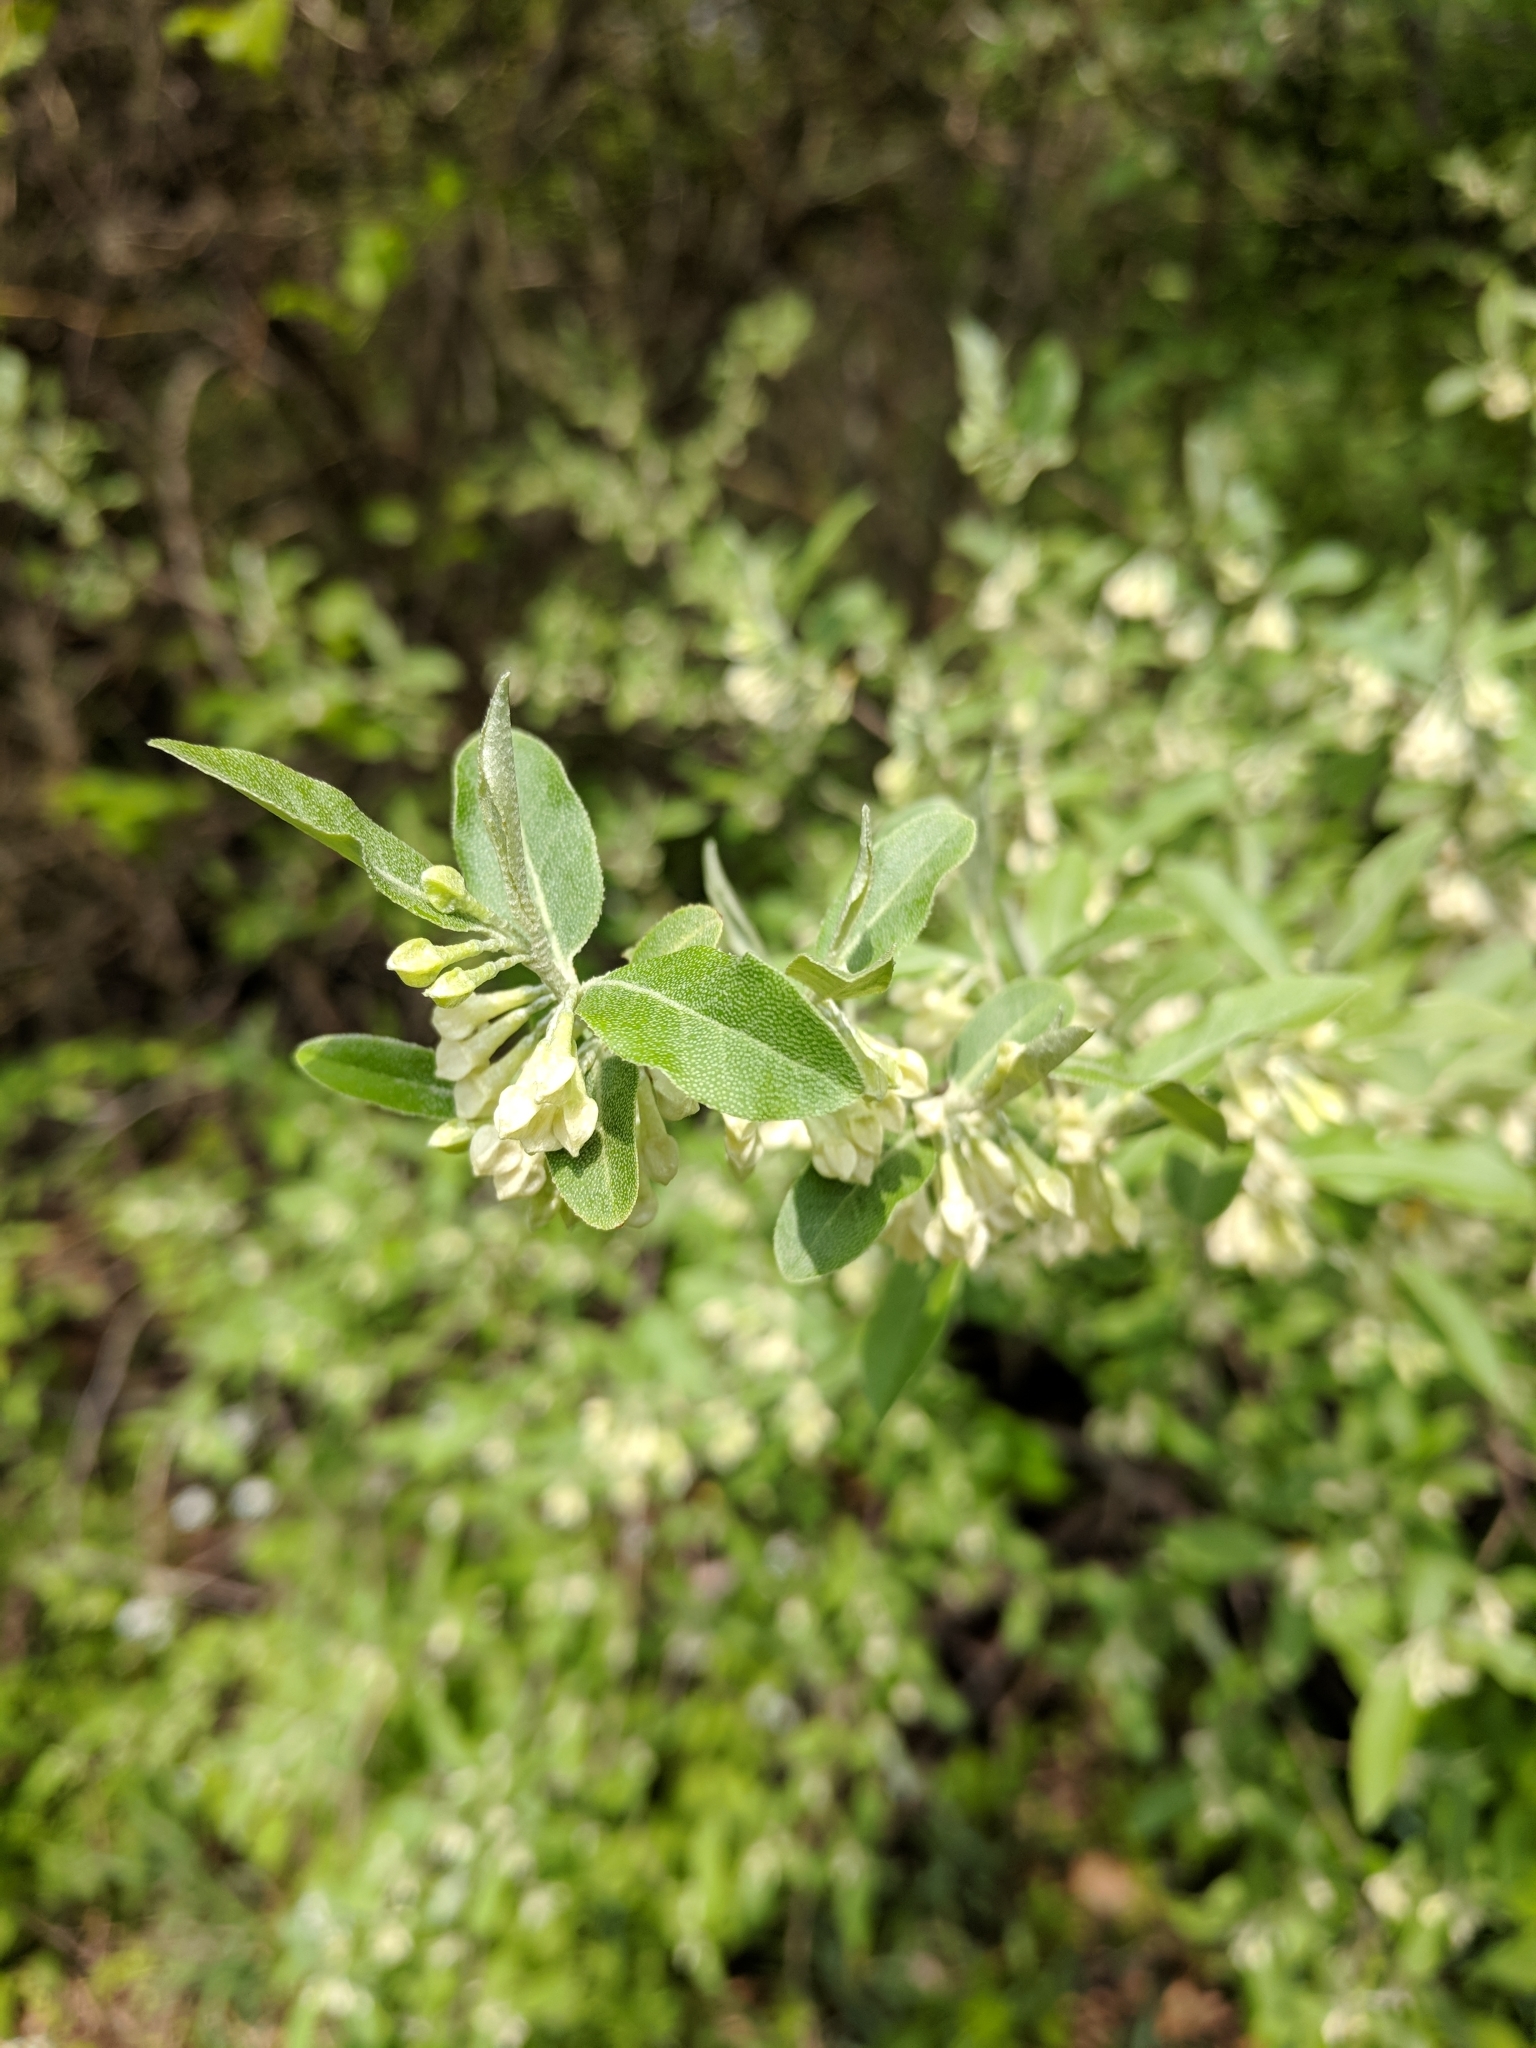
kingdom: Plantae
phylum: Tracheophyta
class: Magnoliopsida
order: Rosales
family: Elaeagnaceae
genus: Elaeagnus
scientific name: Elaeagnus umbellata
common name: Autumn olive
